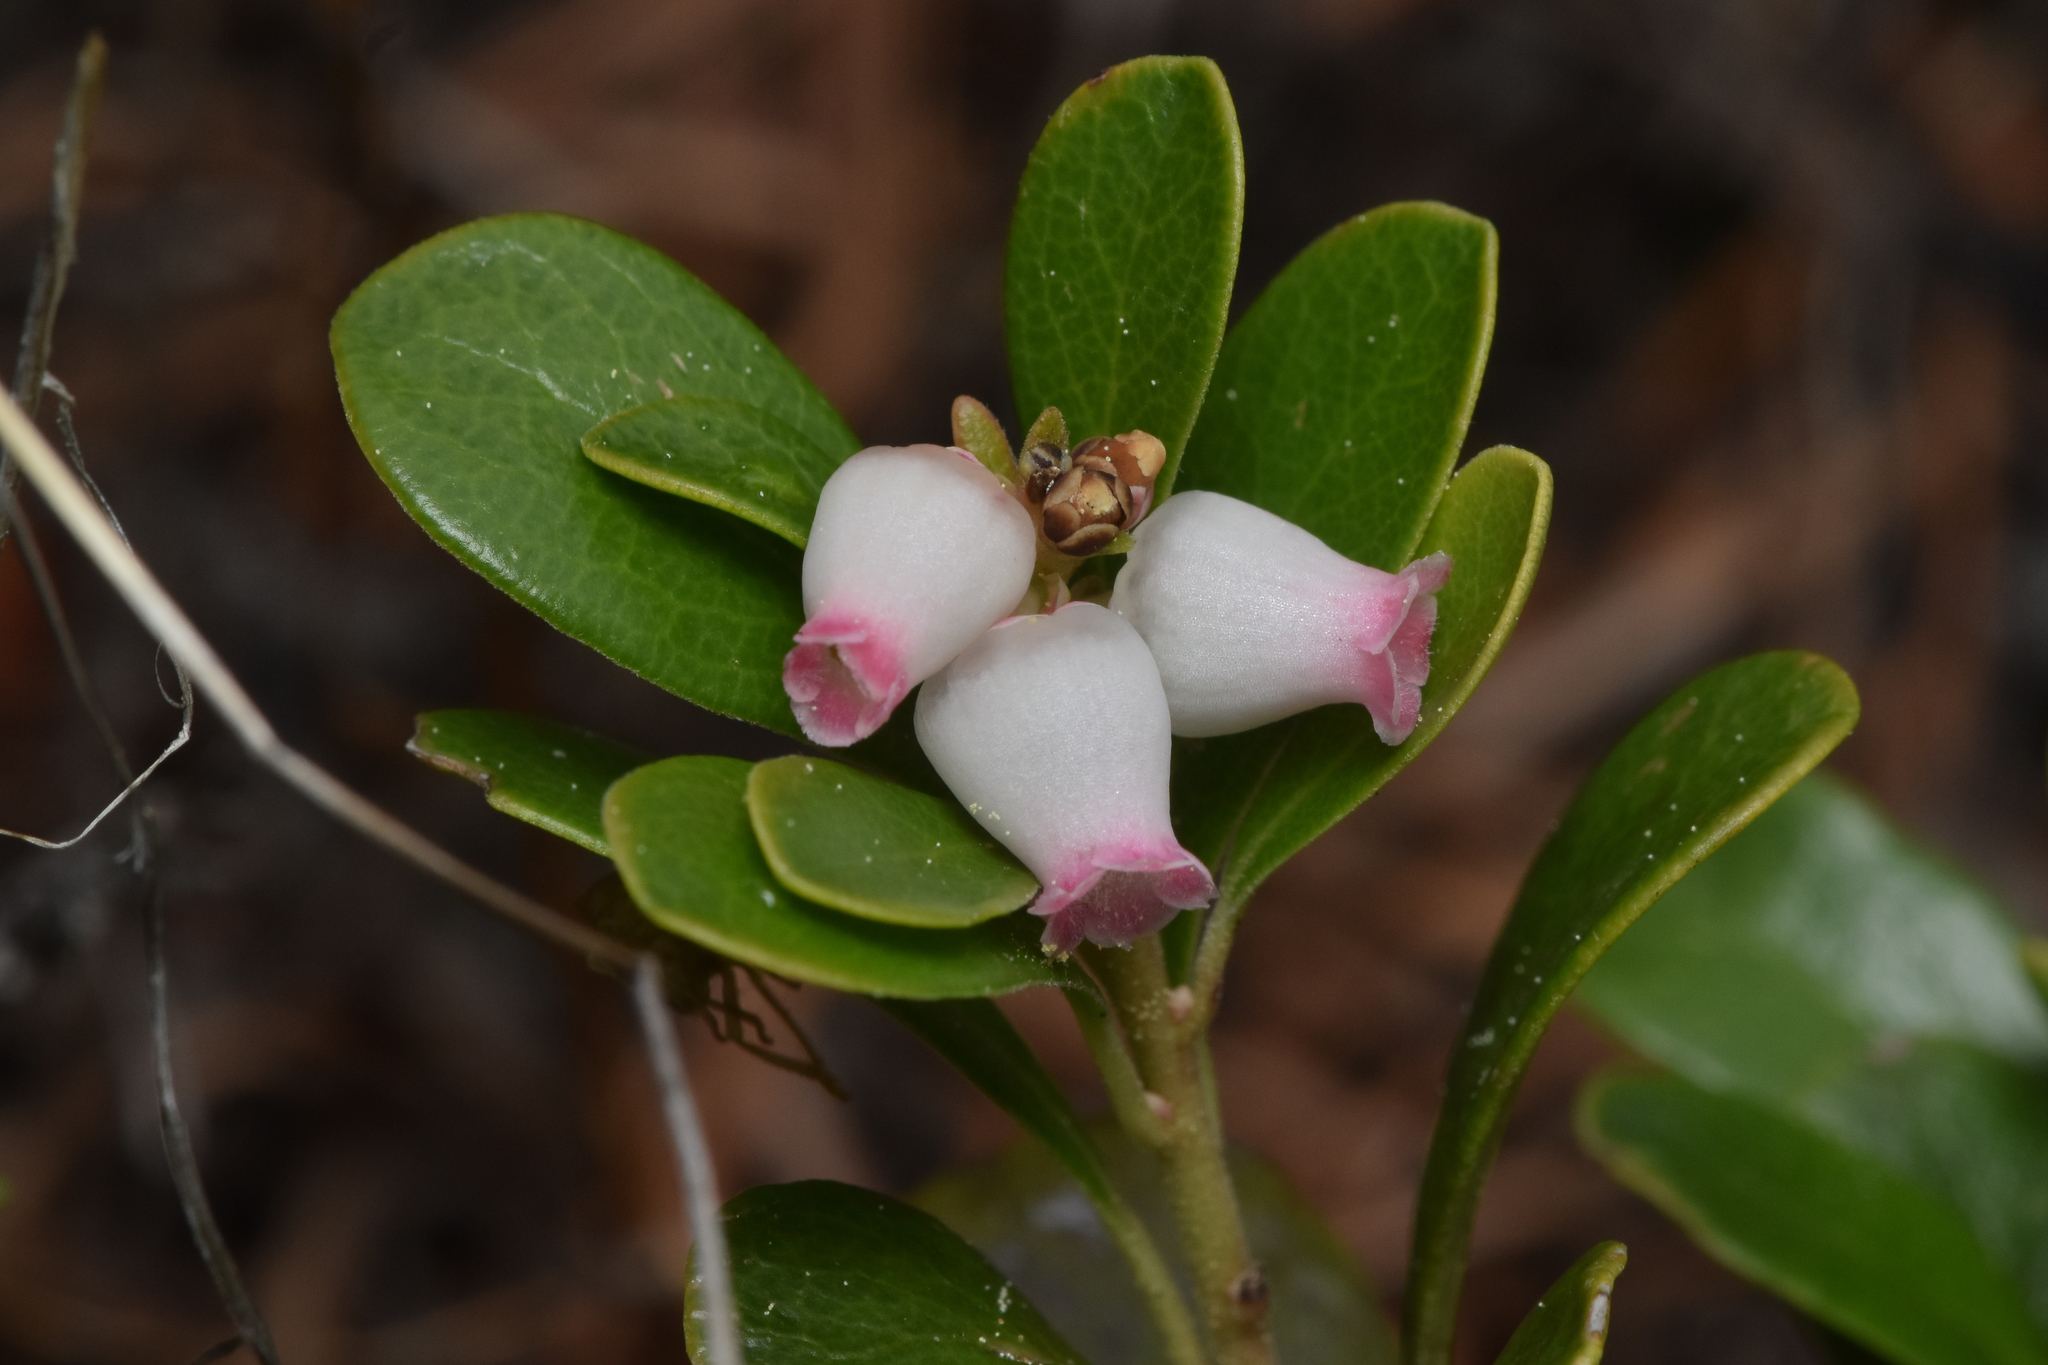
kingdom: Plantae
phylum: Tracheophyta
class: Magnoliopsida
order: Ericales
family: Ericaceae
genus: Arctostaphylos
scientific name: Arctostaphylos uva-ursi
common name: Bearberry
